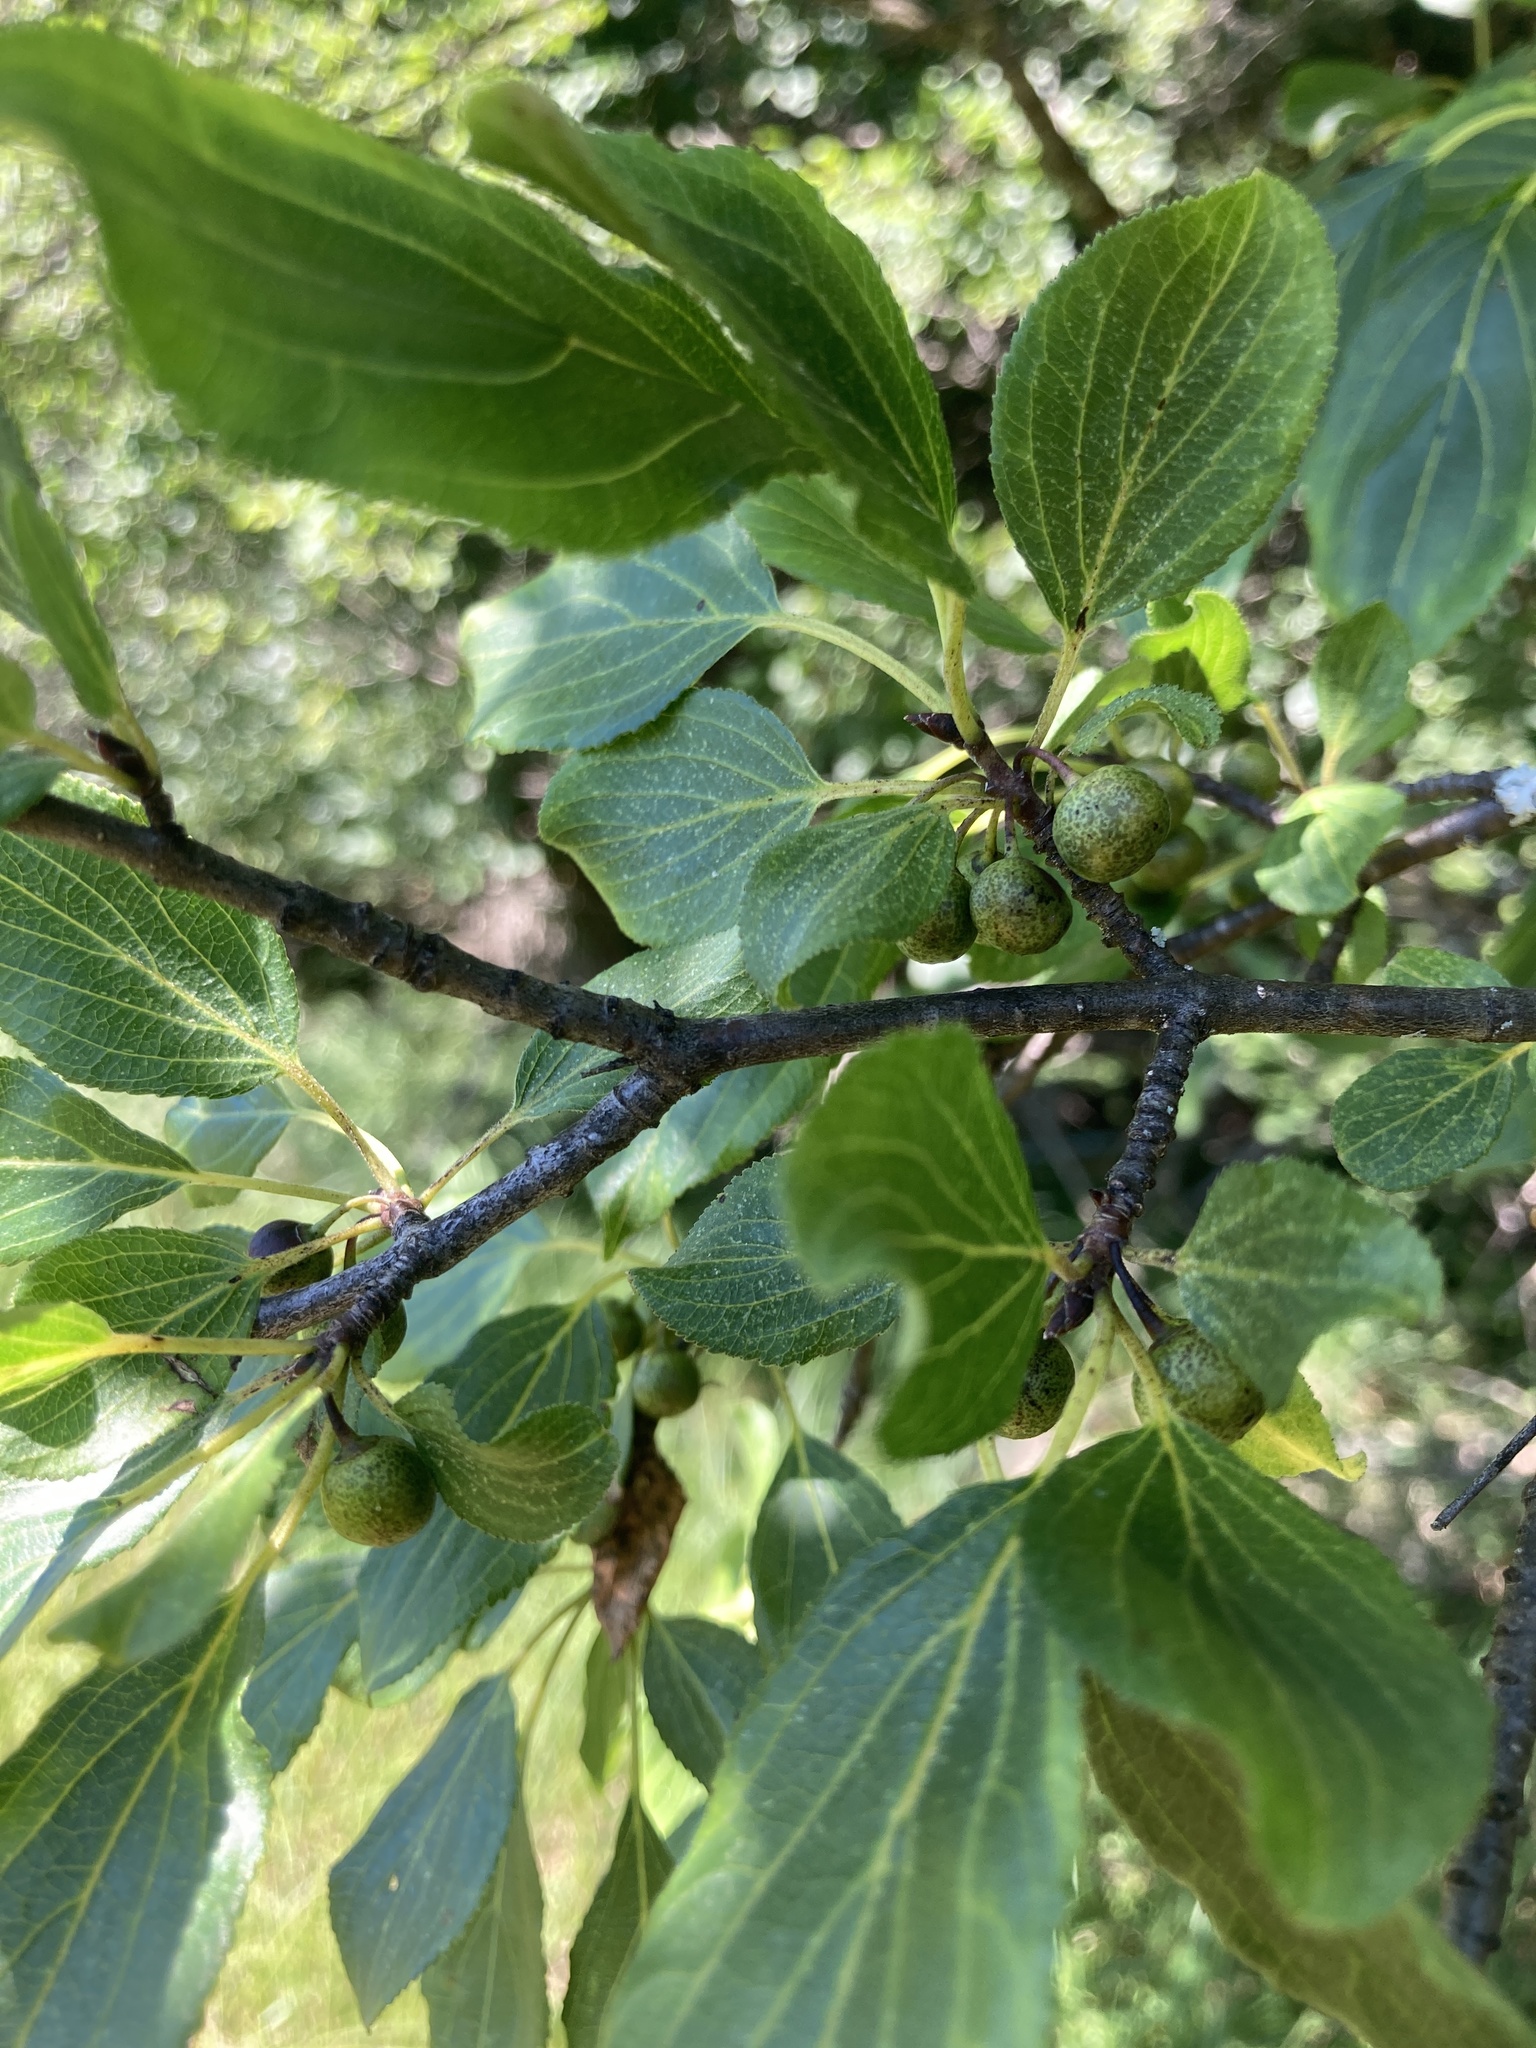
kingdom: Plantae
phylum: Tracheophyta
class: Magnoliopsida
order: Rosales
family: Rhamnaceae
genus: Rhamnus
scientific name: Rhamnus cathartica
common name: Common buckthorn
